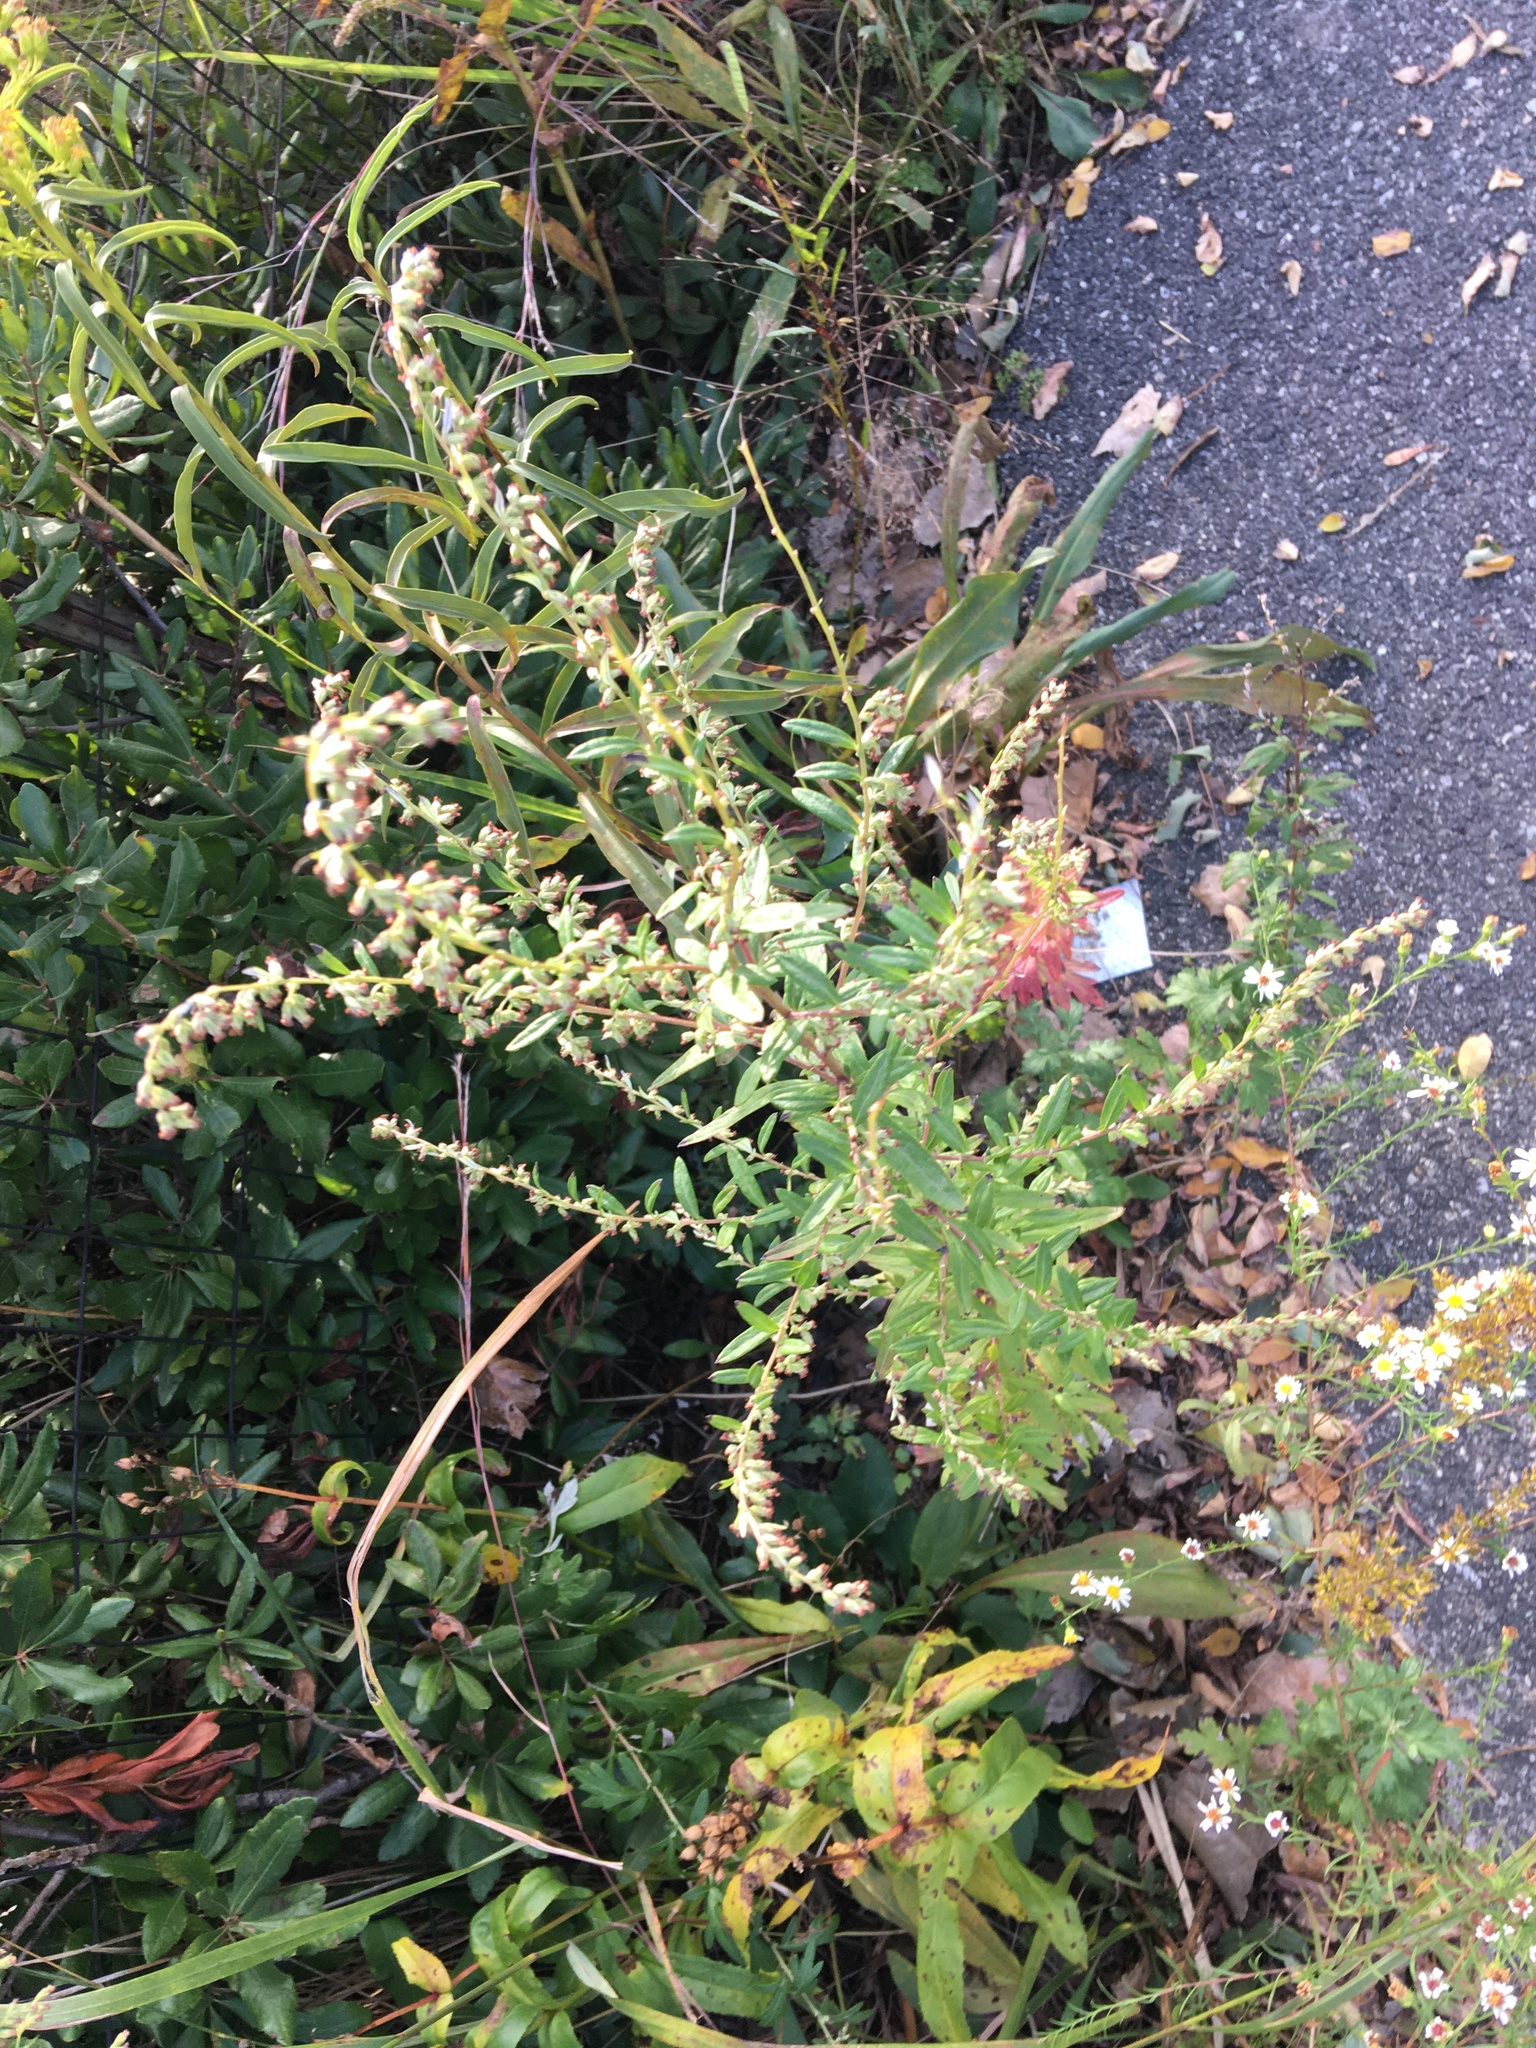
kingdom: Plantae
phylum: Tracheophyta
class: Magnoliopsida
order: Asterales
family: Asteraceae
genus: Artemisia
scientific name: Artemisia vulgaris
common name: Mugwort
